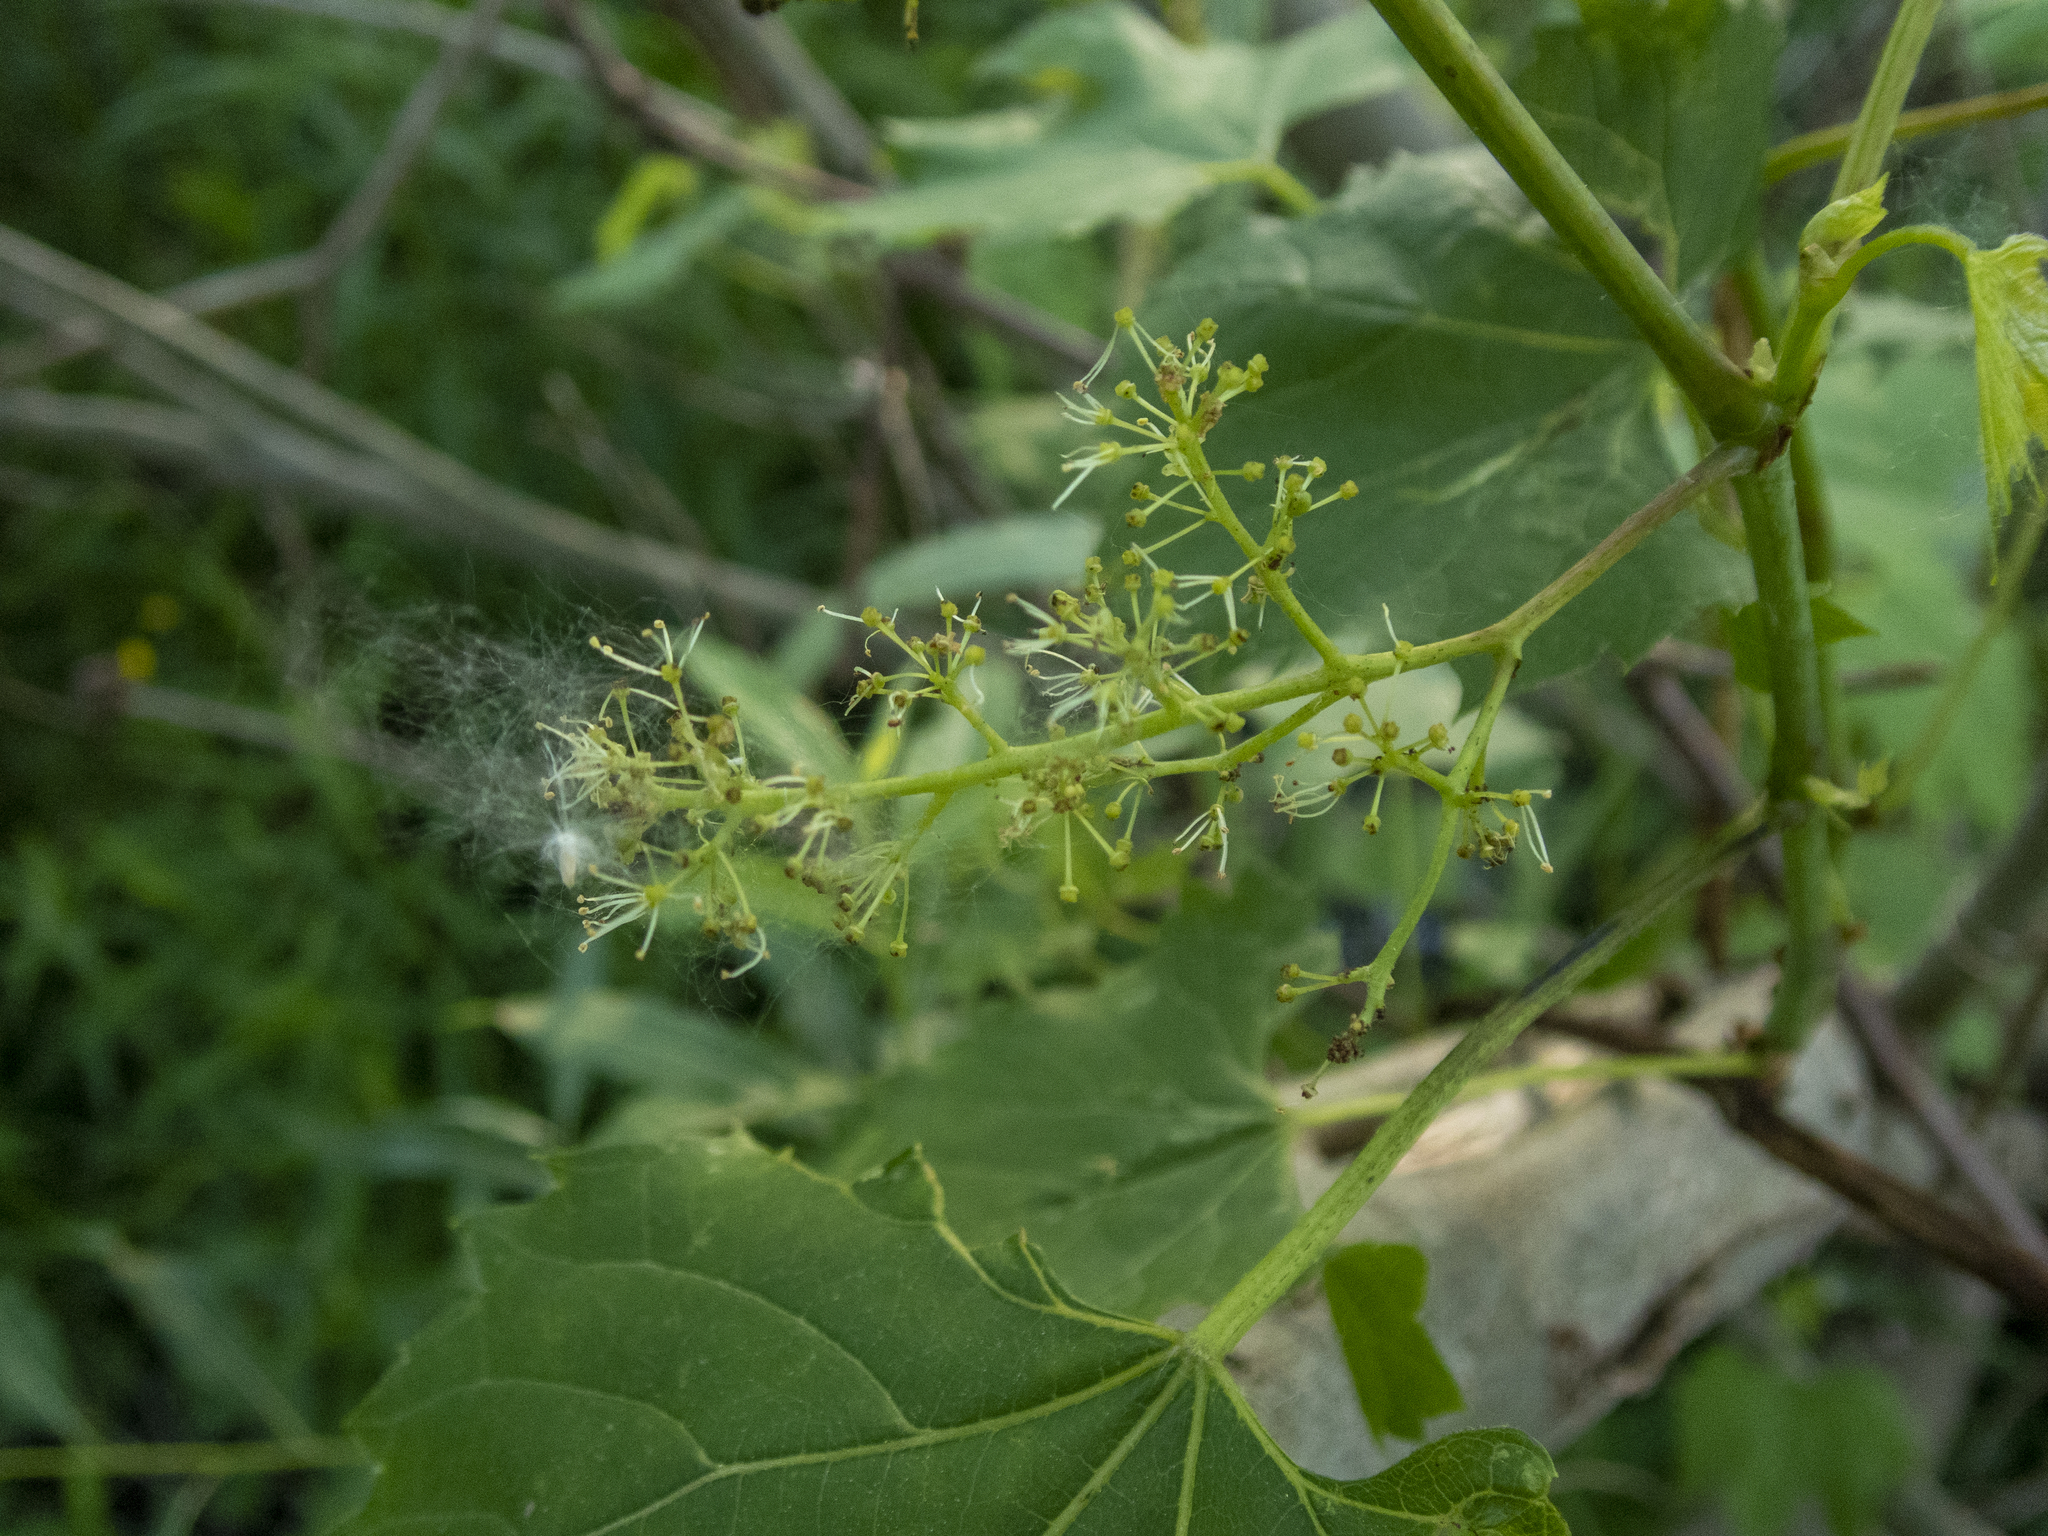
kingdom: Plantae
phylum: Tracheophyta
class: Magnoliopsida
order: Vitales
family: Vitaceae
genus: Vitis
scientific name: Vitis riparia
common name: Frost grape
